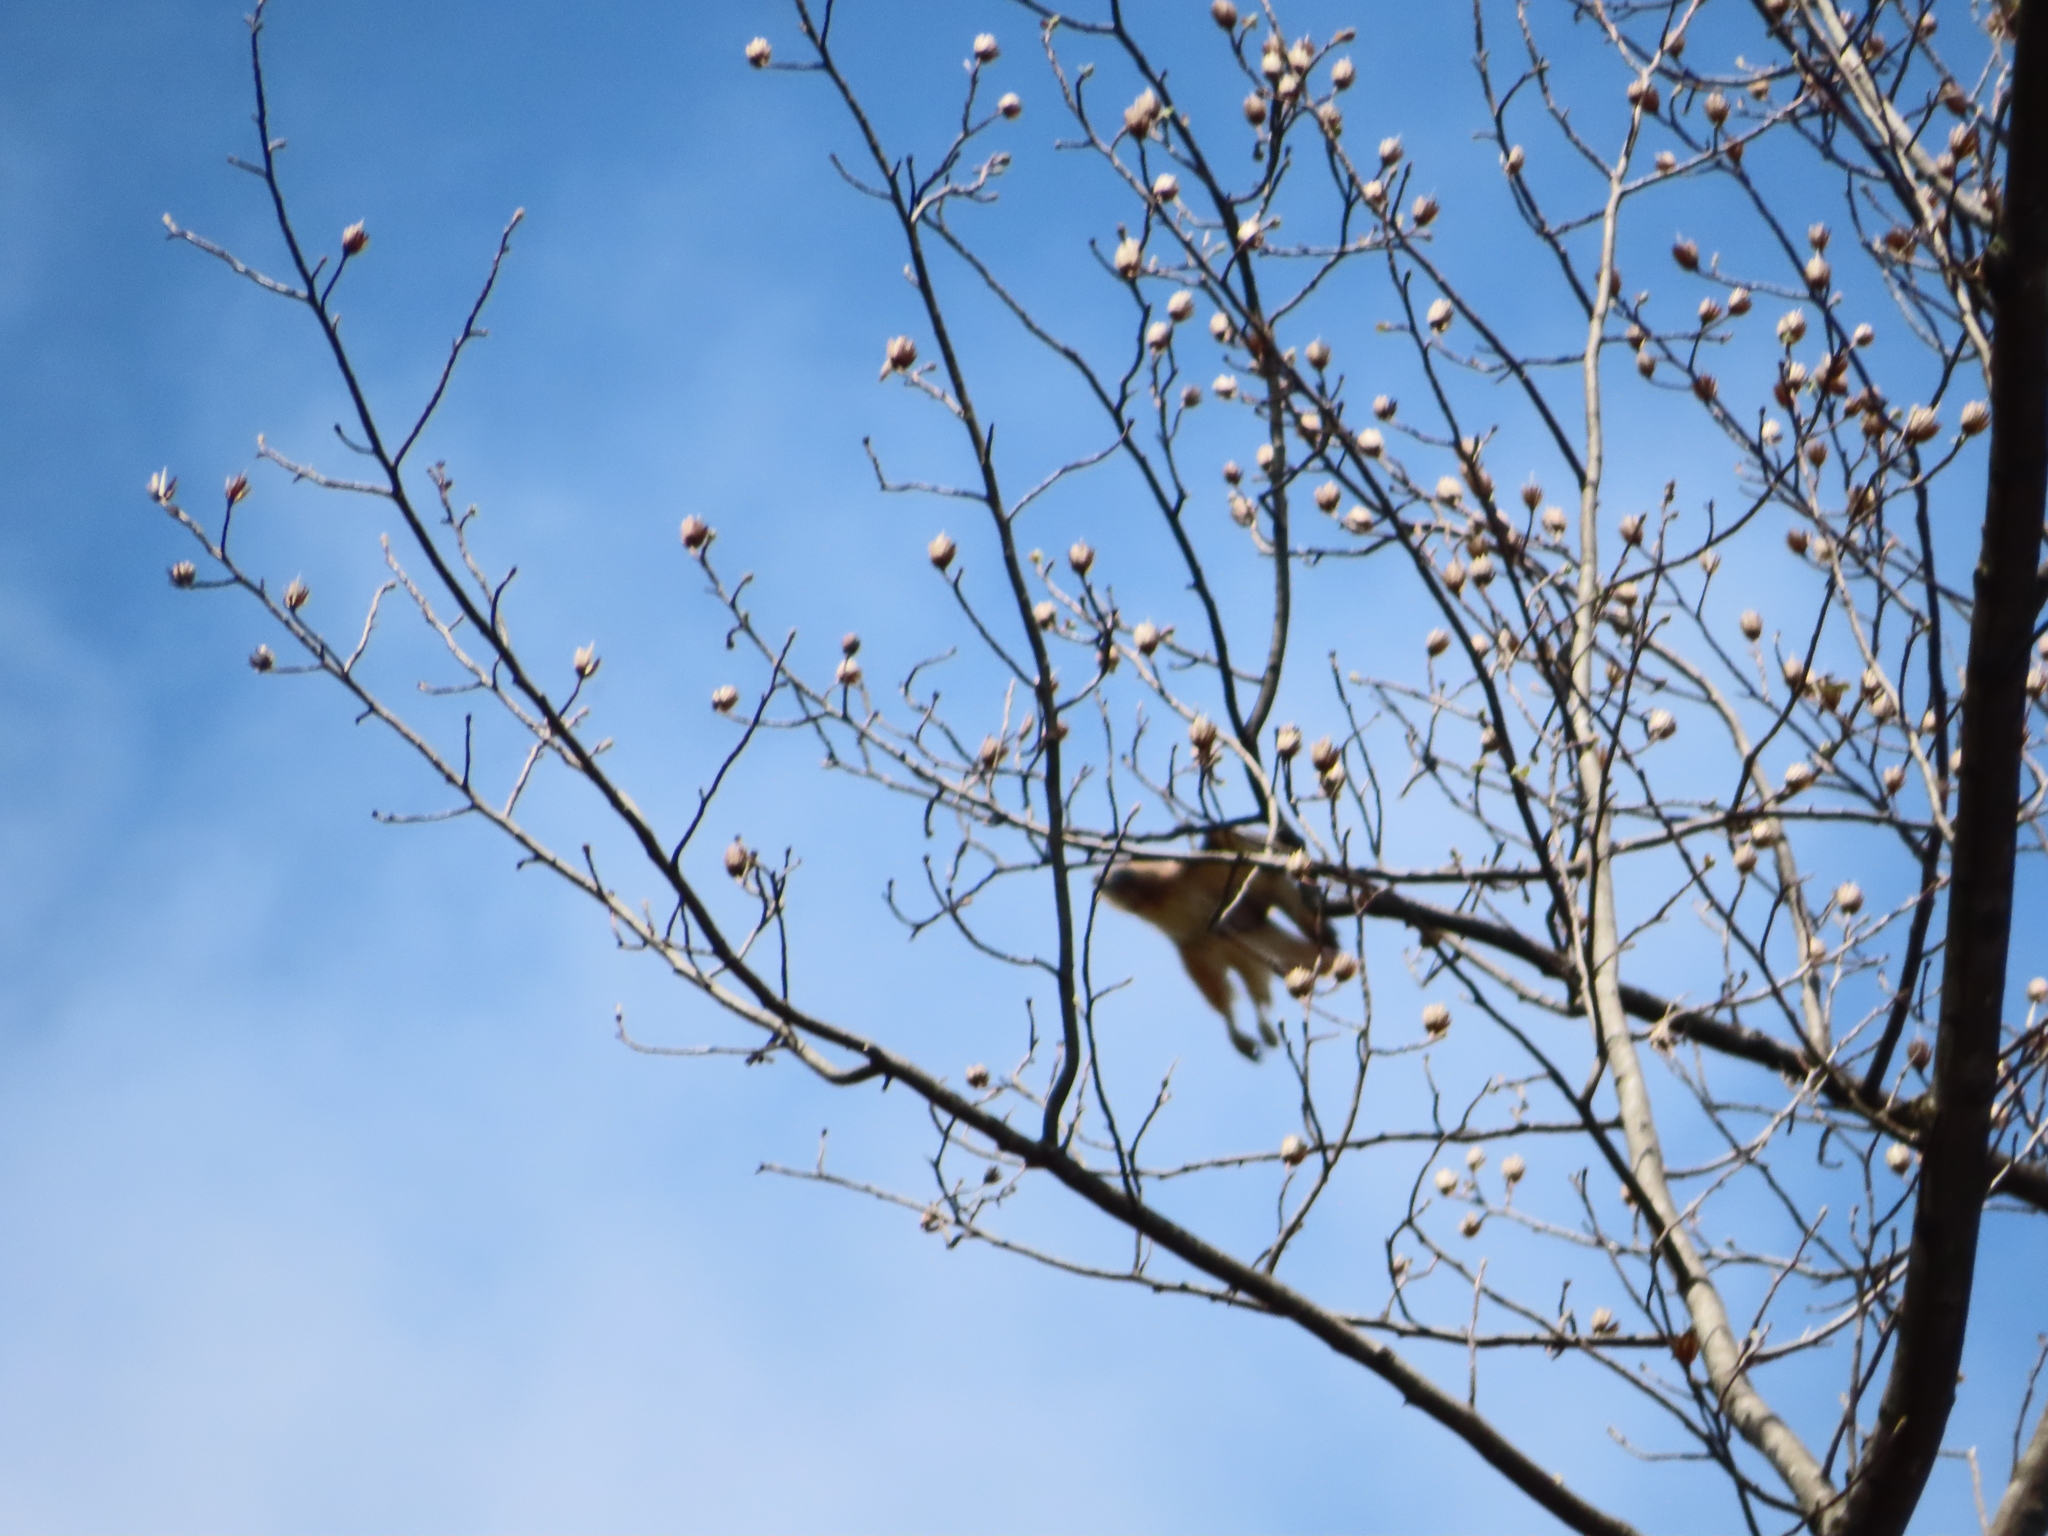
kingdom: Animalia
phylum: Chordata
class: Aves
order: Accipitriformes
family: Accipitridae
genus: Buteo
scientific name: Buteo jamaicensis
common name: Red-tailed hawk
